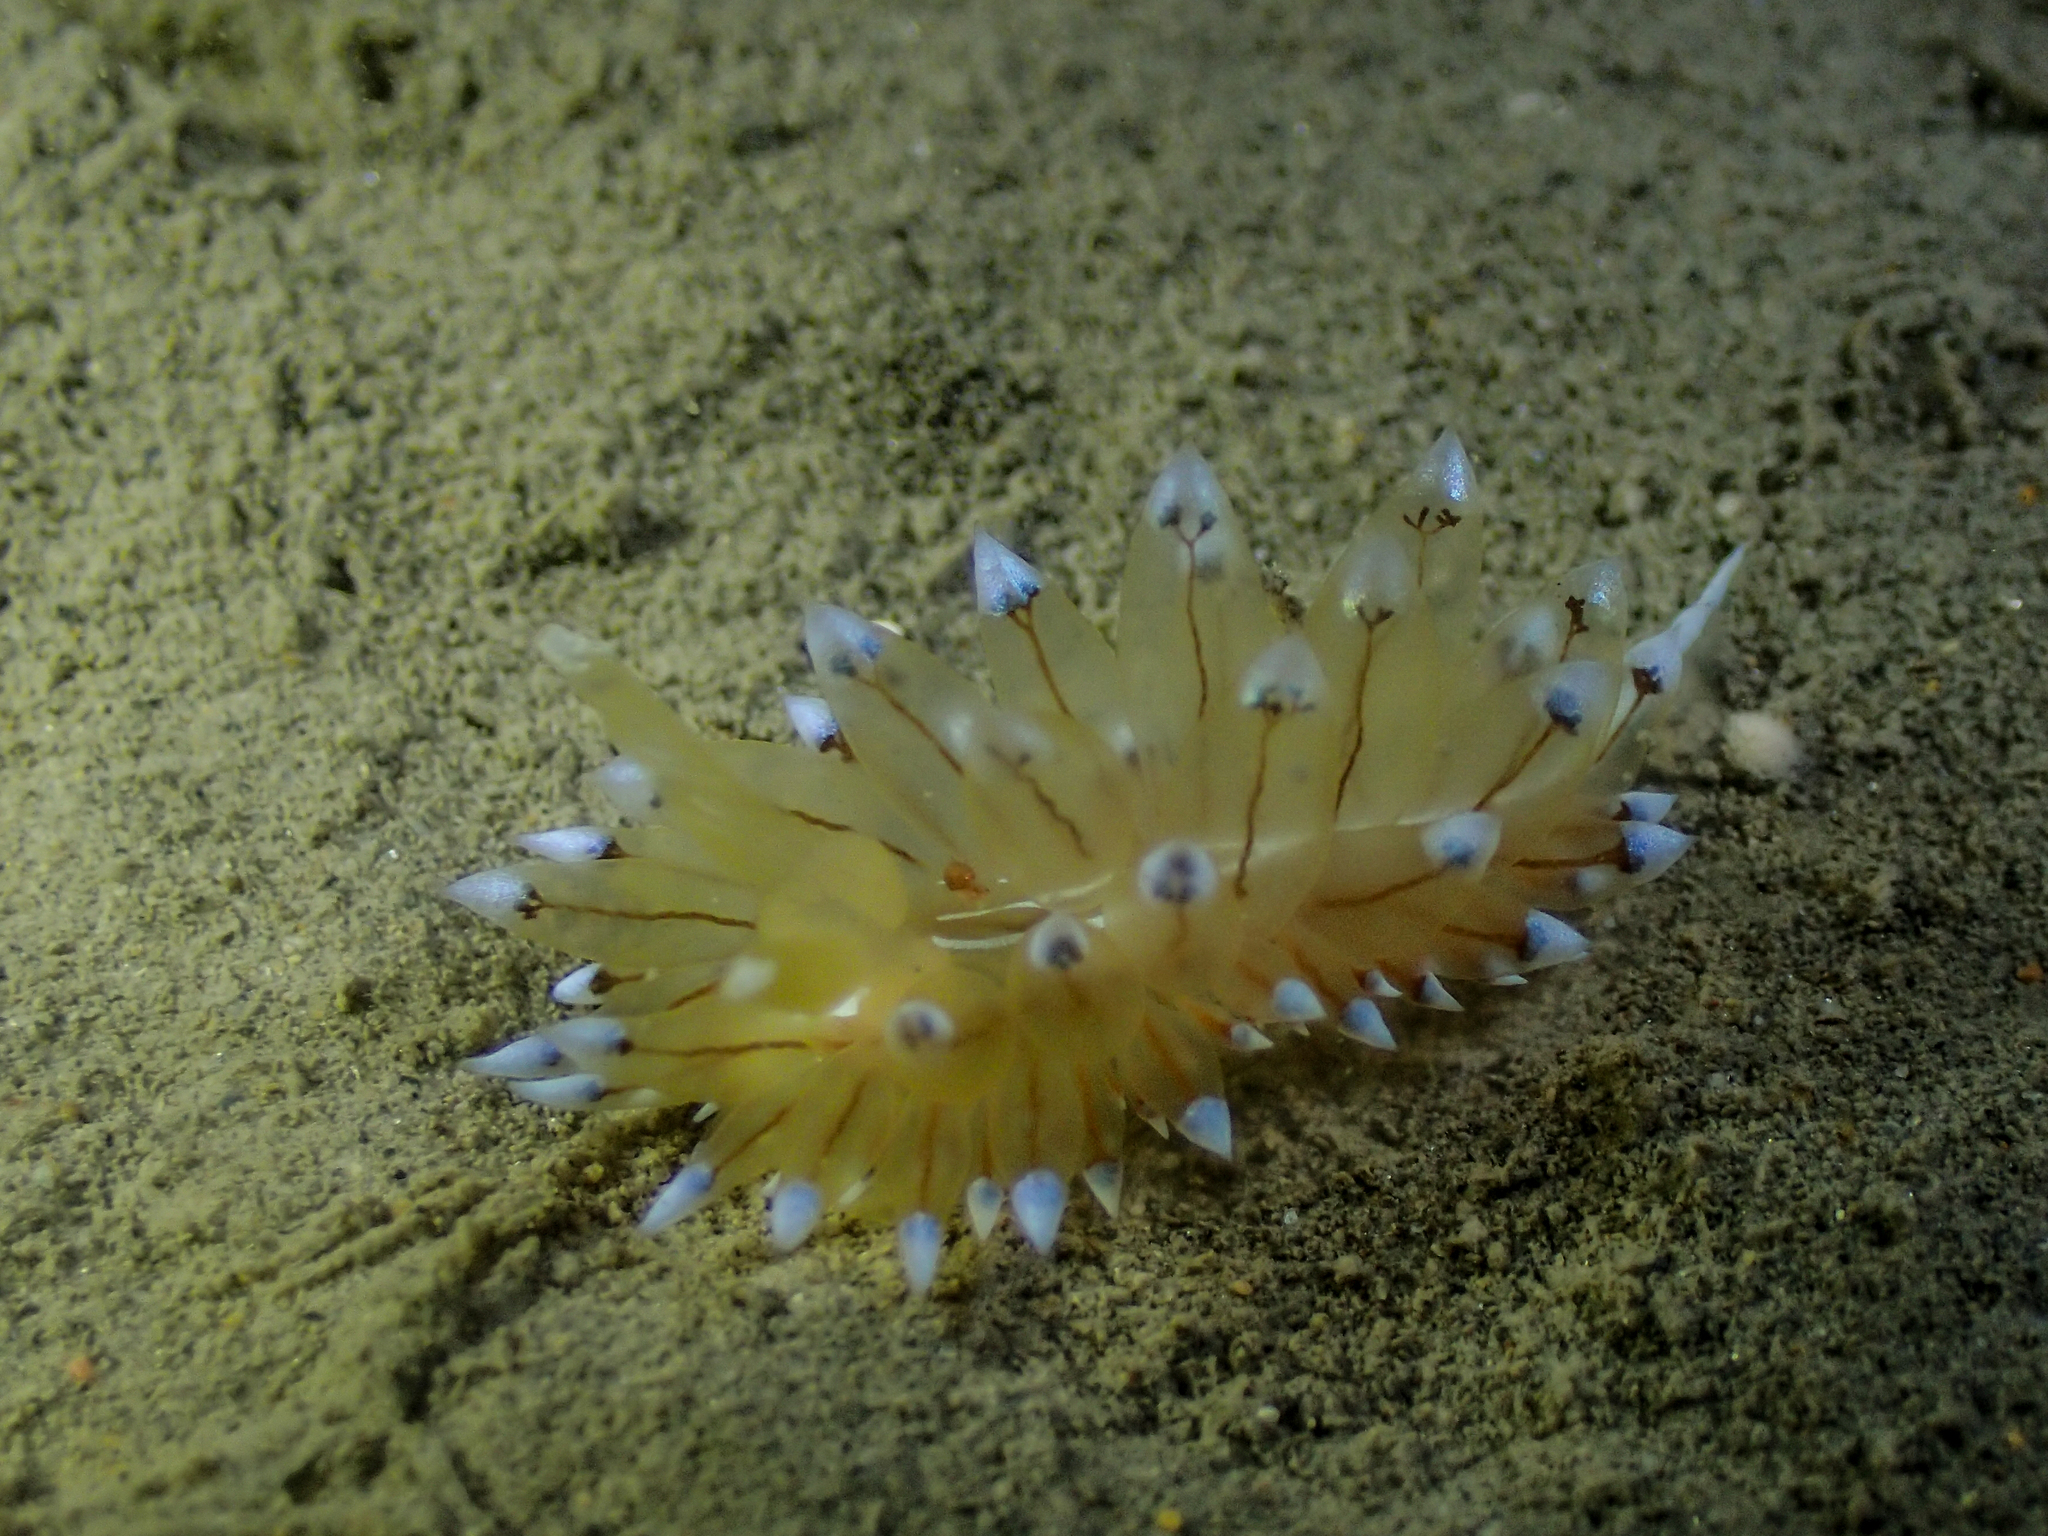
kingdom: Animalia
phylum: Mollusca
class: Gastropoda
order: Nudibranchia
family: Janolidae
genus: Antiopella
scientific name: Antiopella cristata
